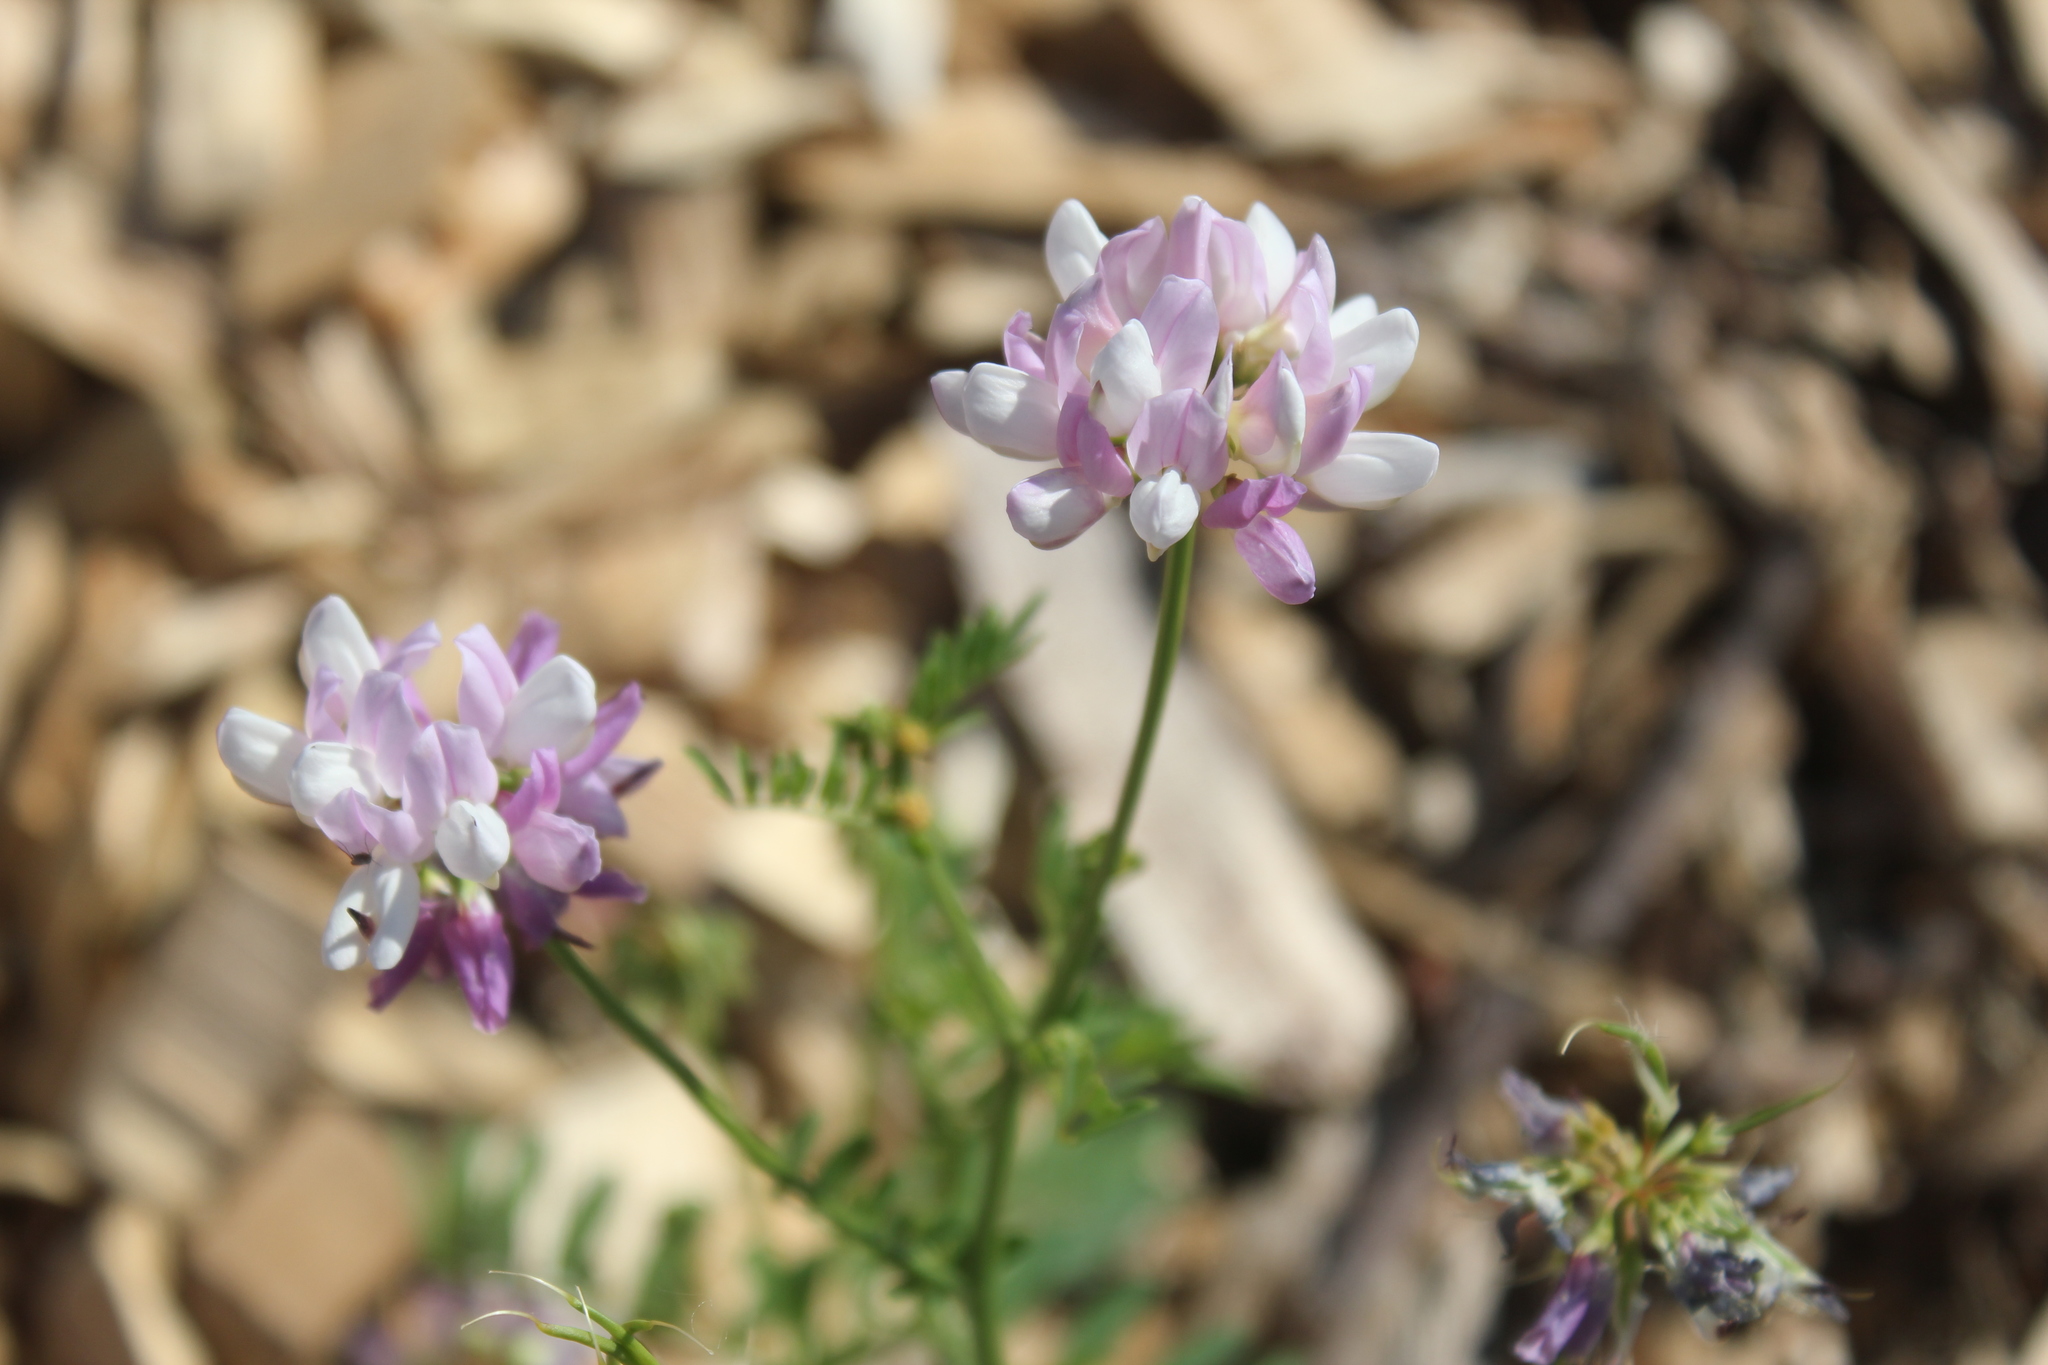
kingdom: Plantae
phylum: Tracheophyta
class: Magnoliopsida
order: Fabales
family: Fabaceae
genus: Coronilla
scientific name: Coronilla varia
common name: Crownvetch
